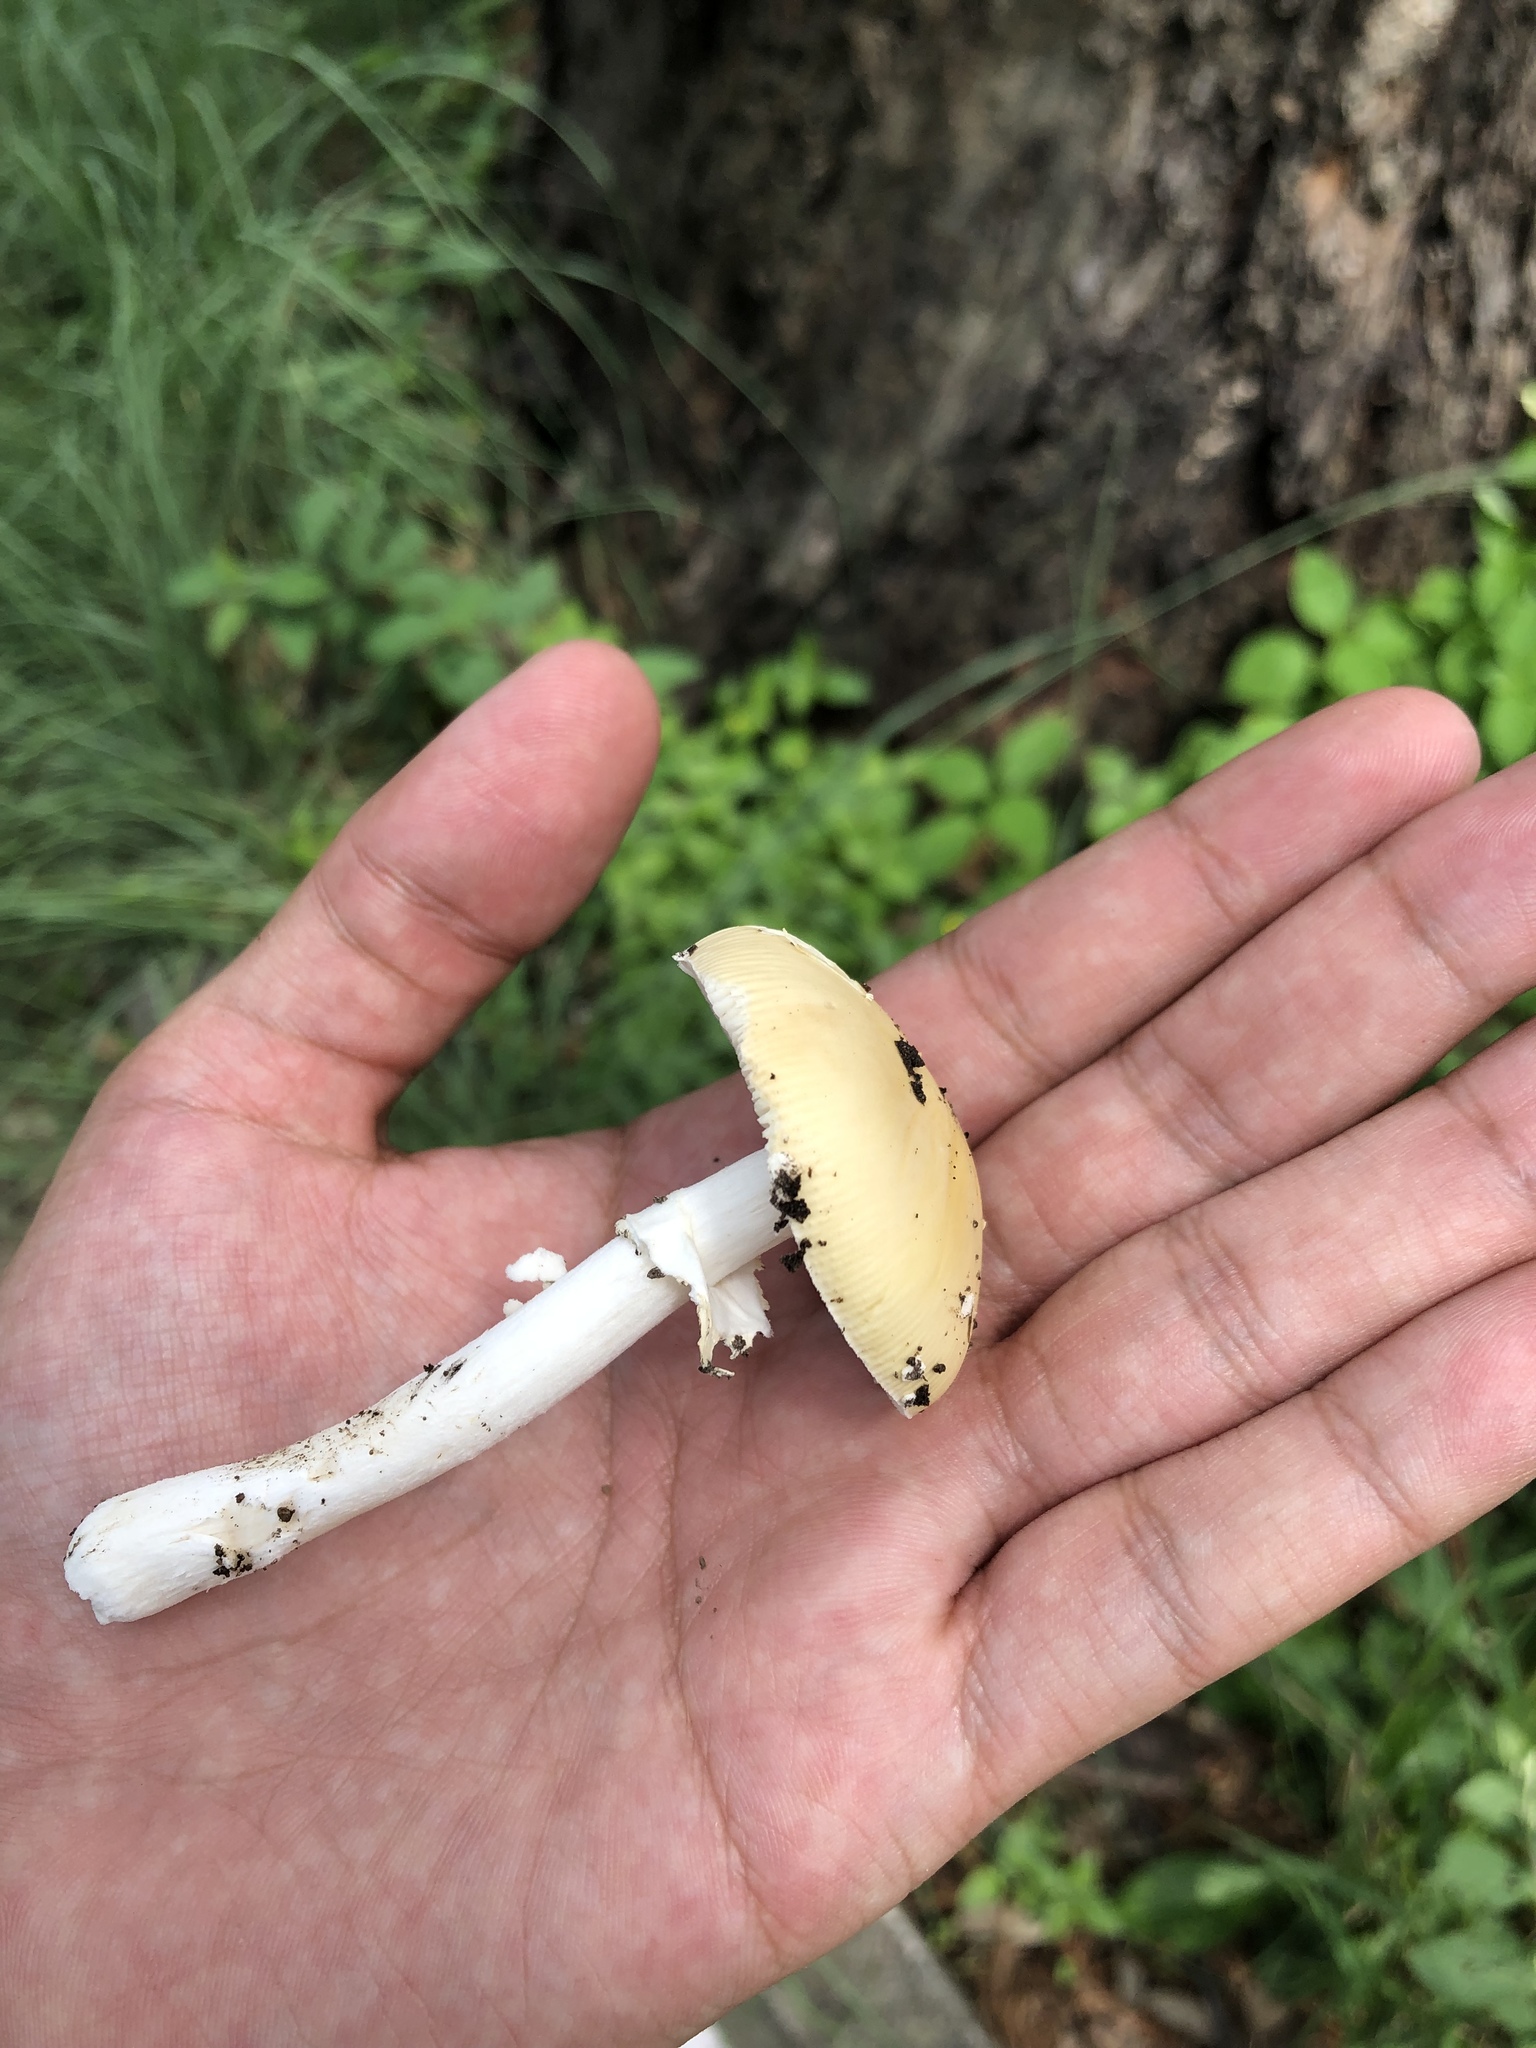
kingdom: Fungi
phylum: Basidiomycota
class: Agaricomycetes
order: Agaricales
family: Amanitaceae
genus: Amanita
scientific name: Amanita xylinivolva
